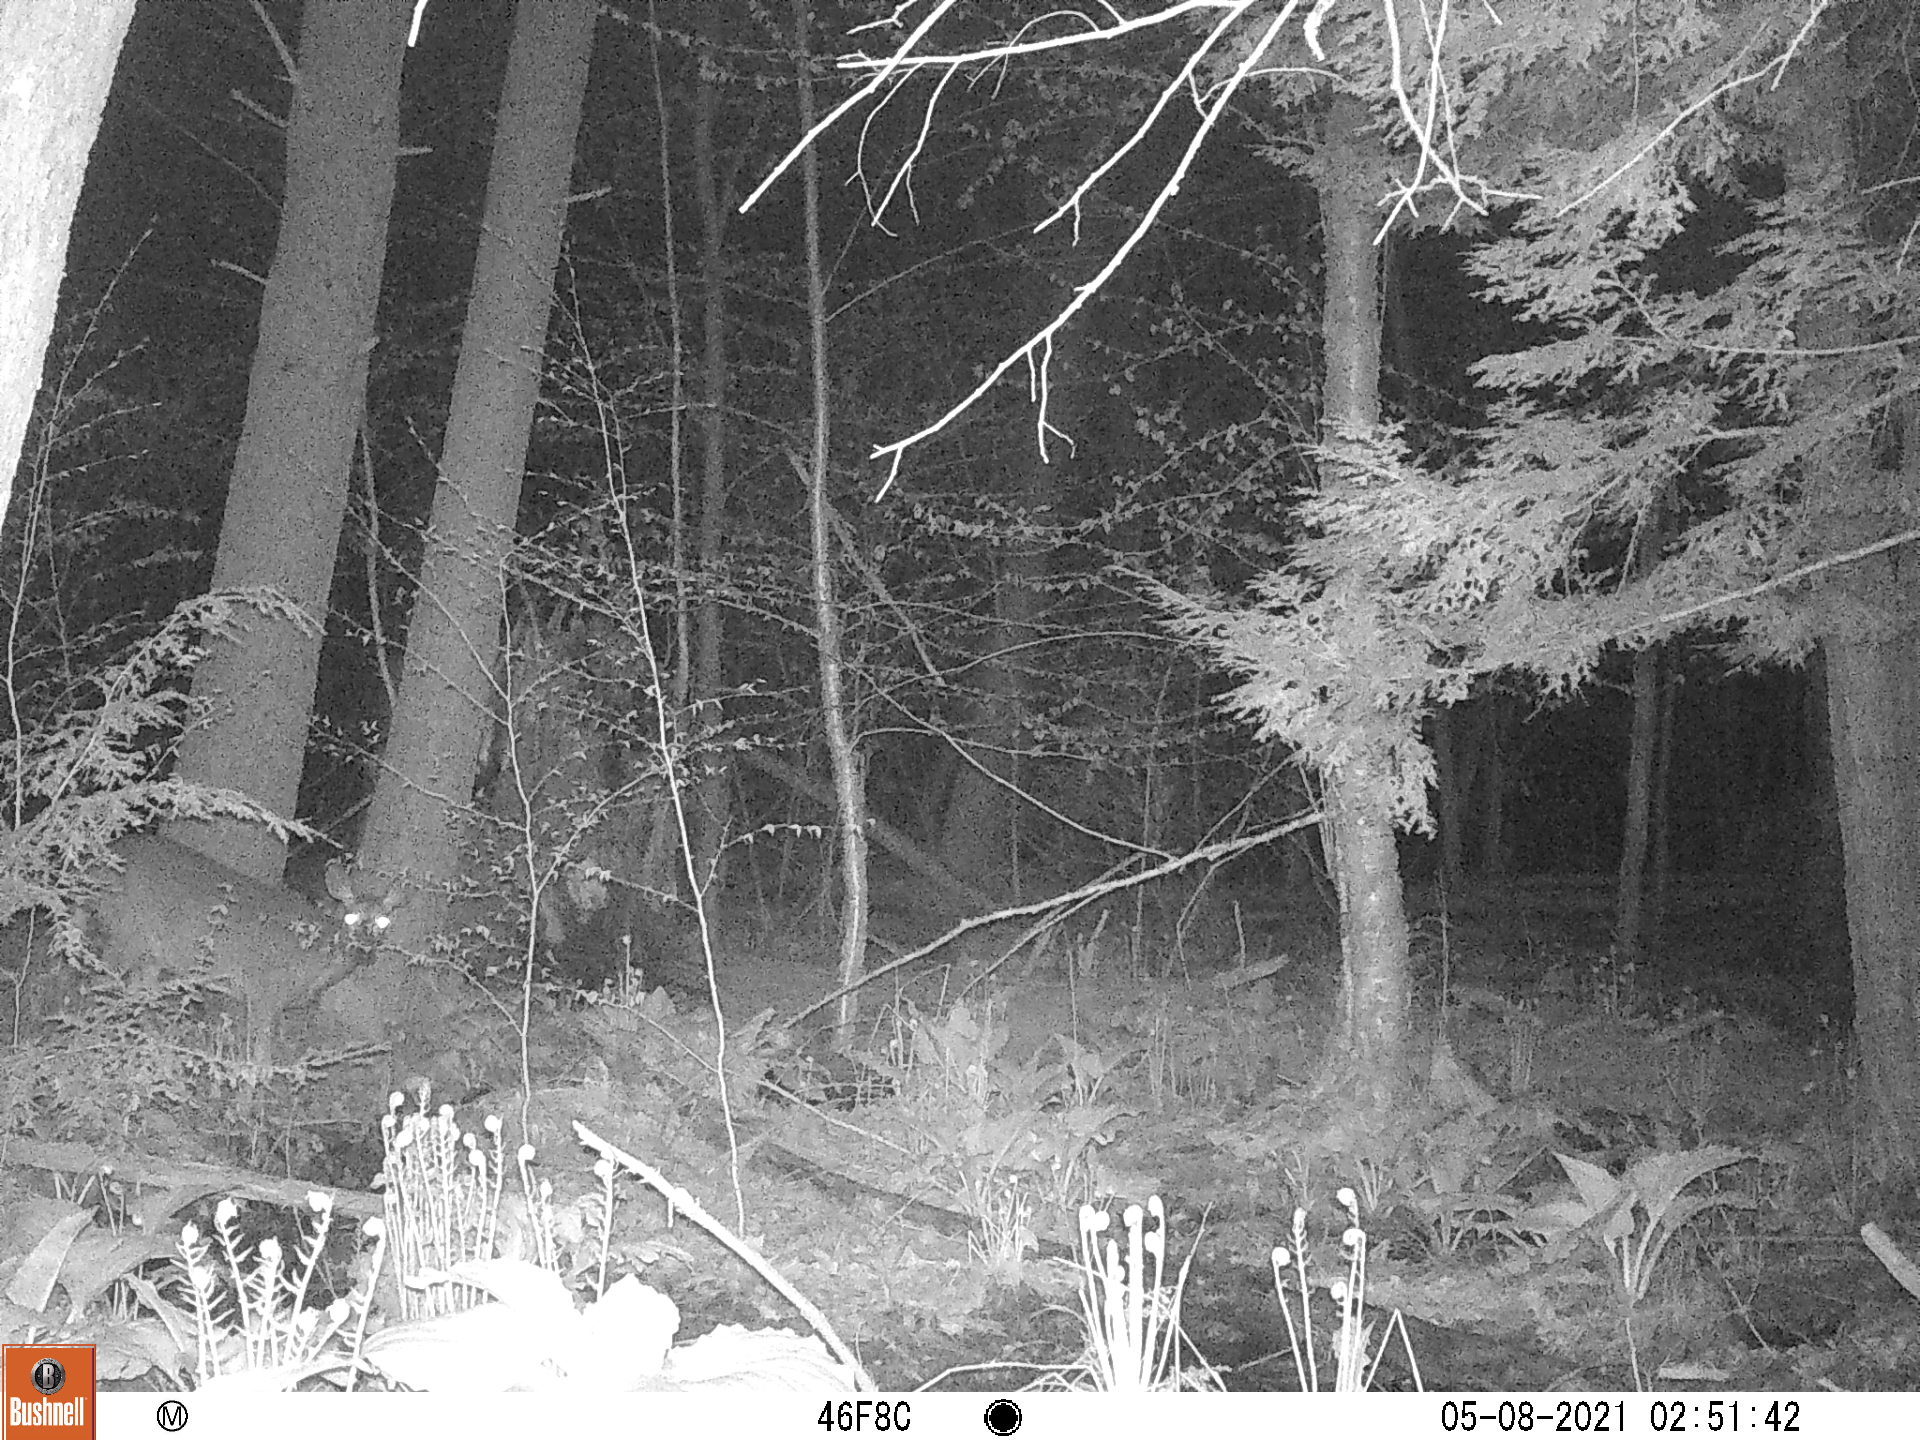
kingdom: Animalia
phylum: Chordata
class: Mammalia
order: Artiodactyla
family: Cervidae
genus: Odocoileus
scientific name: Odocoileus virginianus
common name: White-tailed deer
